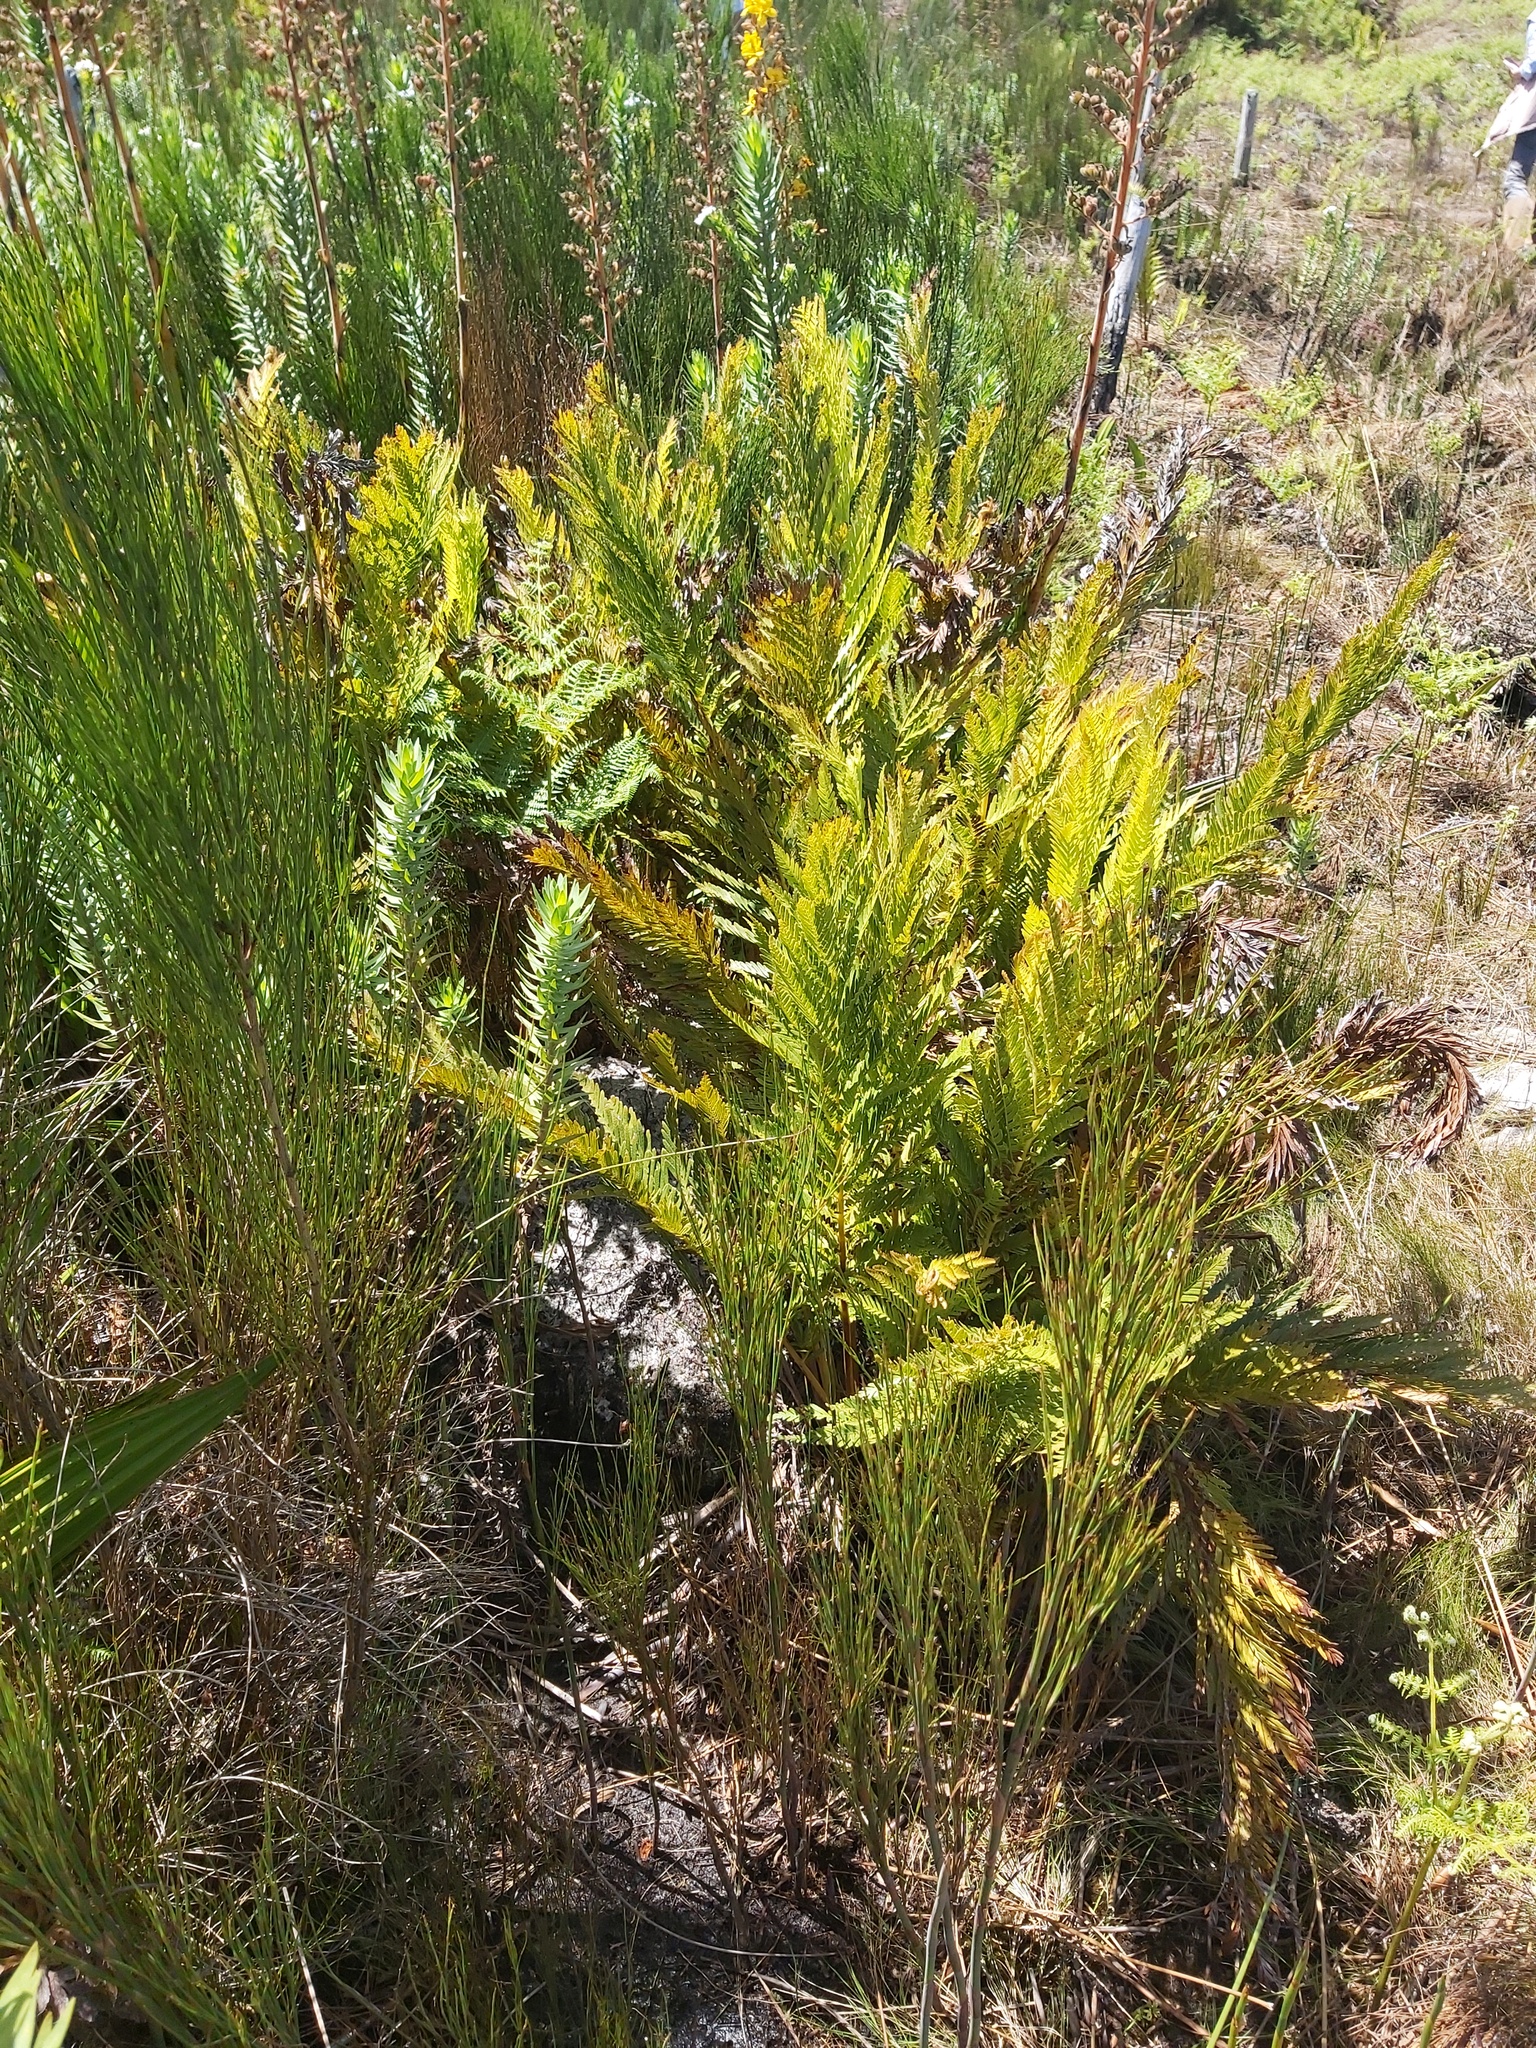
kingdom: Plantae
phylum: Tracheophyta
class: Polypodiopsida
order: Osmundales
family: Osmundaceae
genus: Todea
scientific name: Todea barbara
